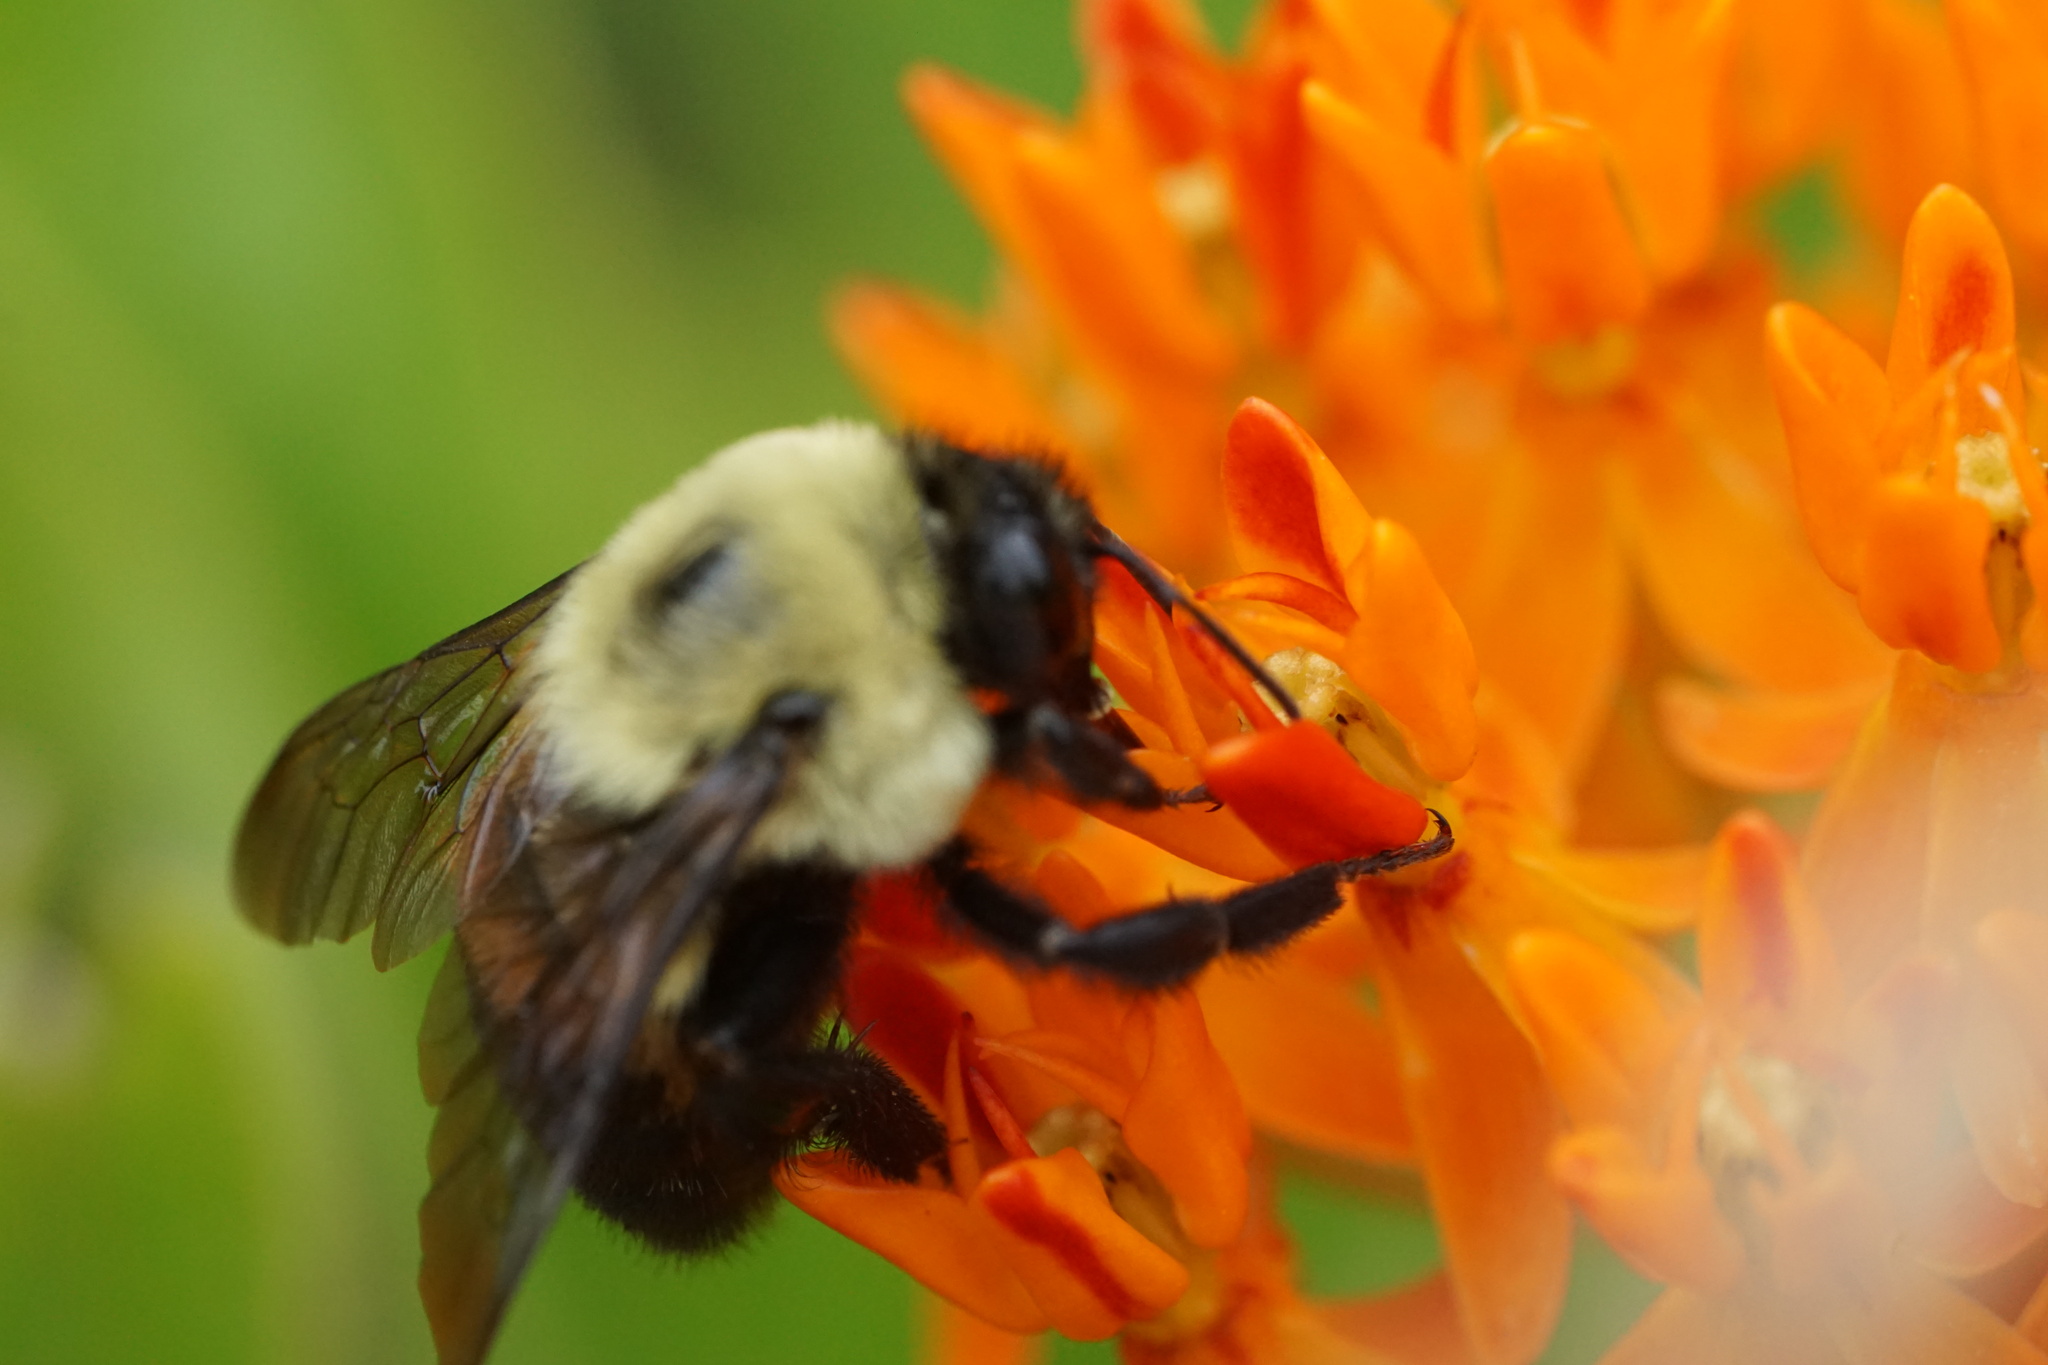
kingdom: Animalia
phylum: Arthropoda
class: Insecta
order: Hymenoptera
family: Apidae
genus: Bombus
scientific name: Bombus griseocollis
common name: Brown-belted bumble bee
